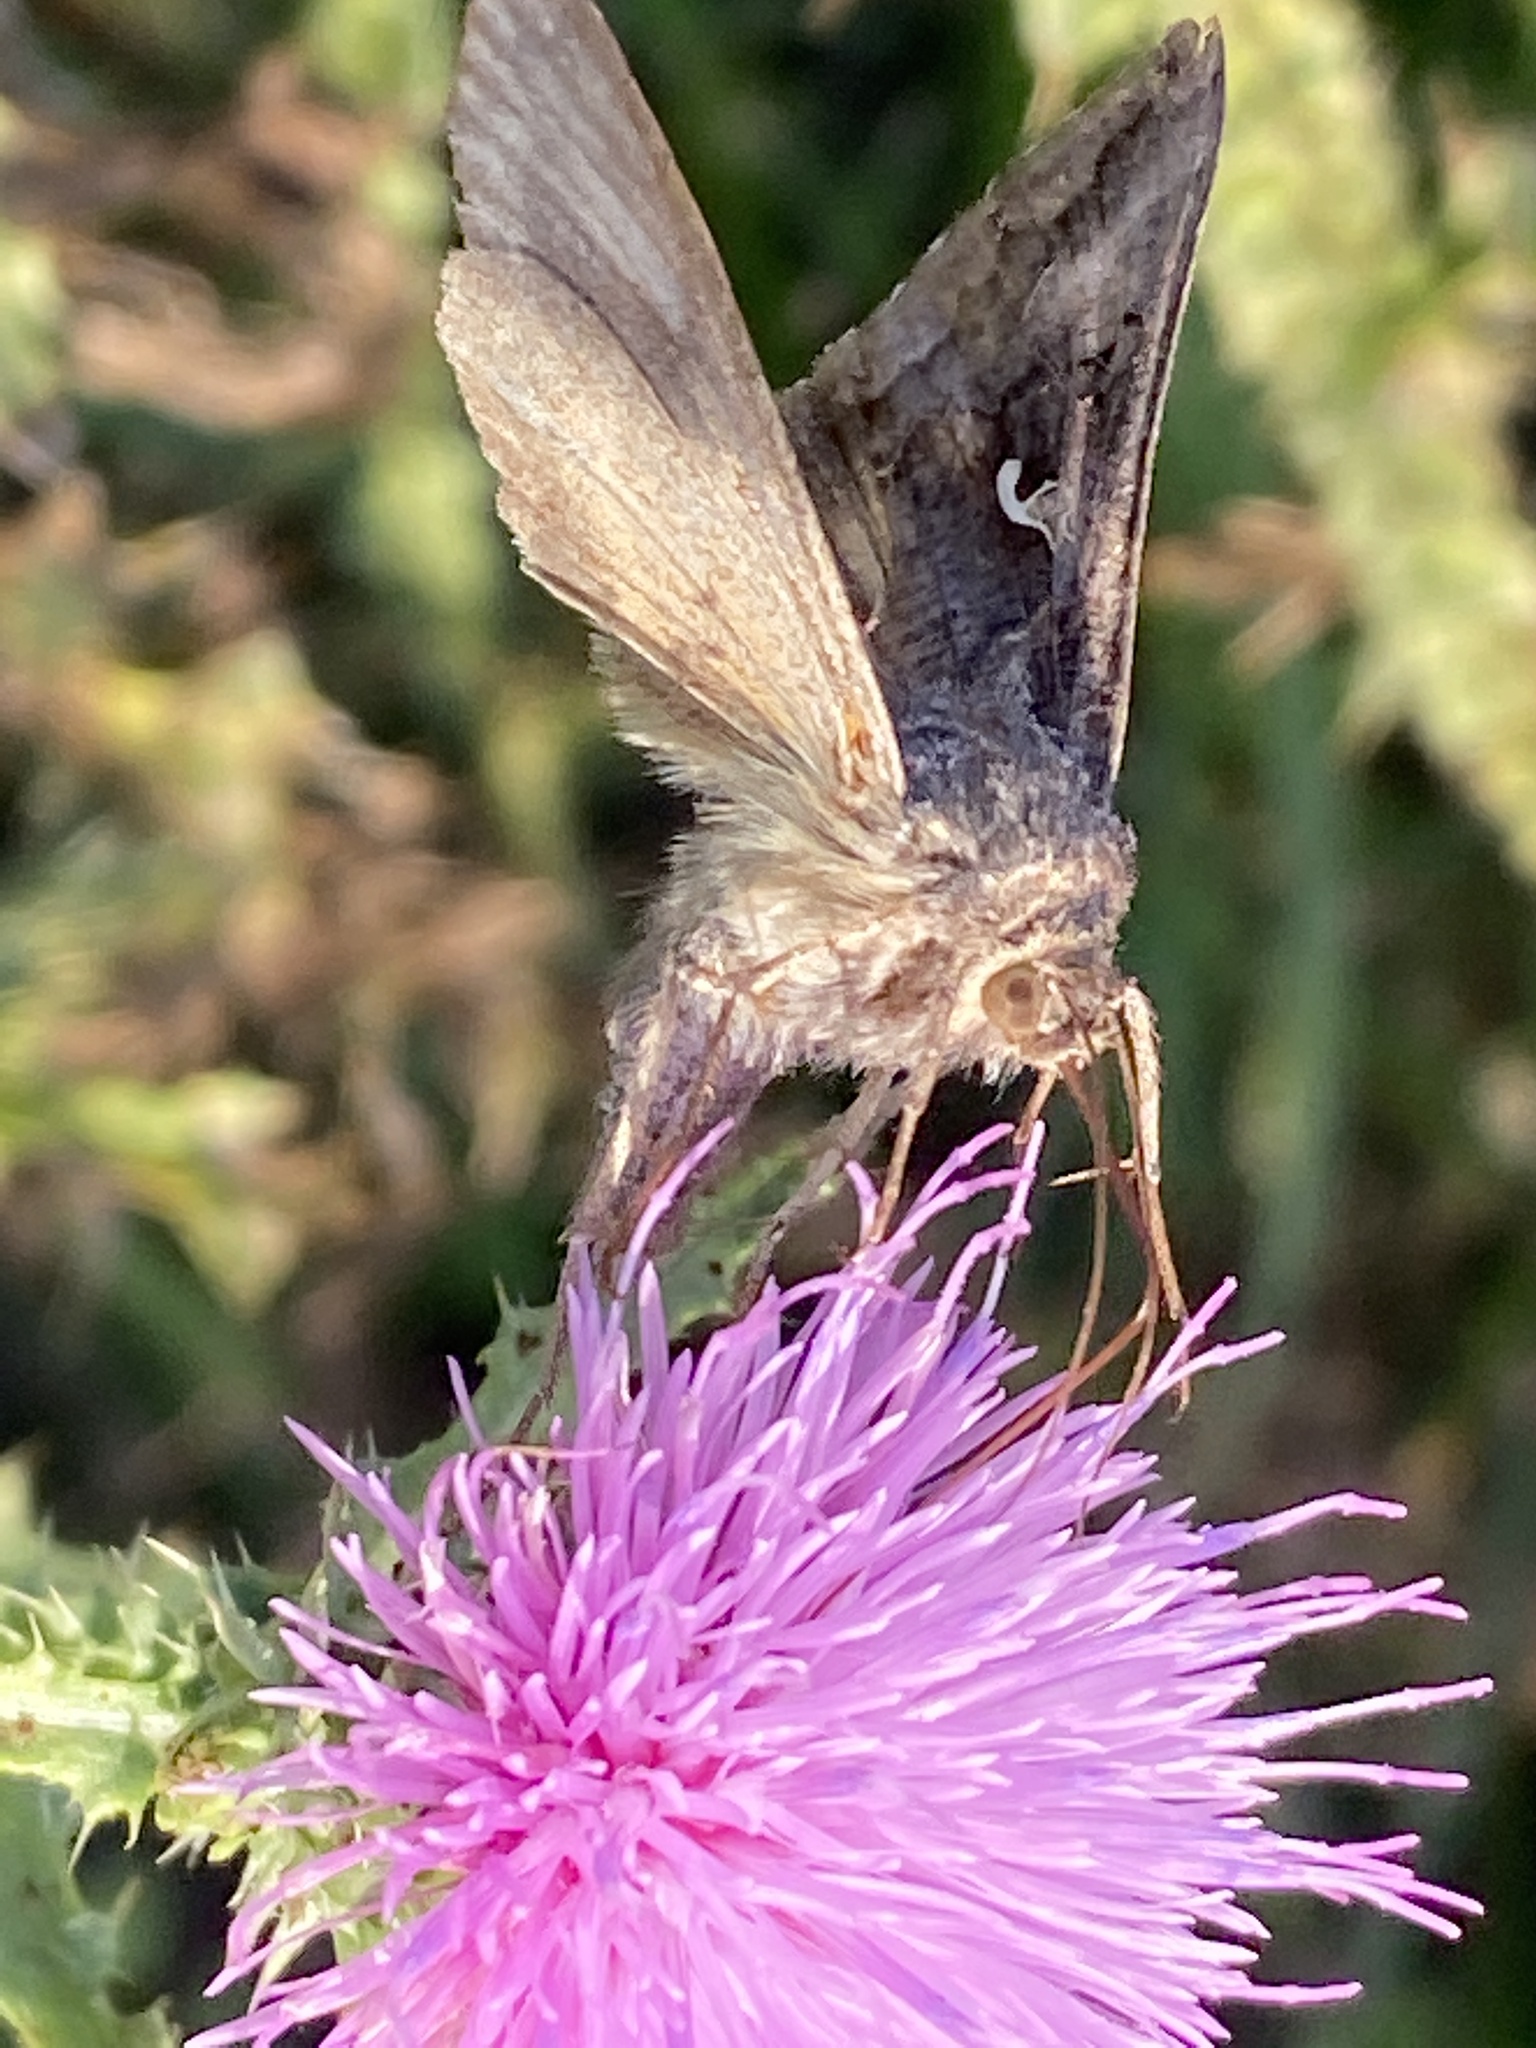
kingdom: Animalia
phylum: Arthropoda
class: Insecta
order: Lepidoptera
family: Noctuidae
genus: Autographa
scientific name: Autographa gamma
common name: Silver y
